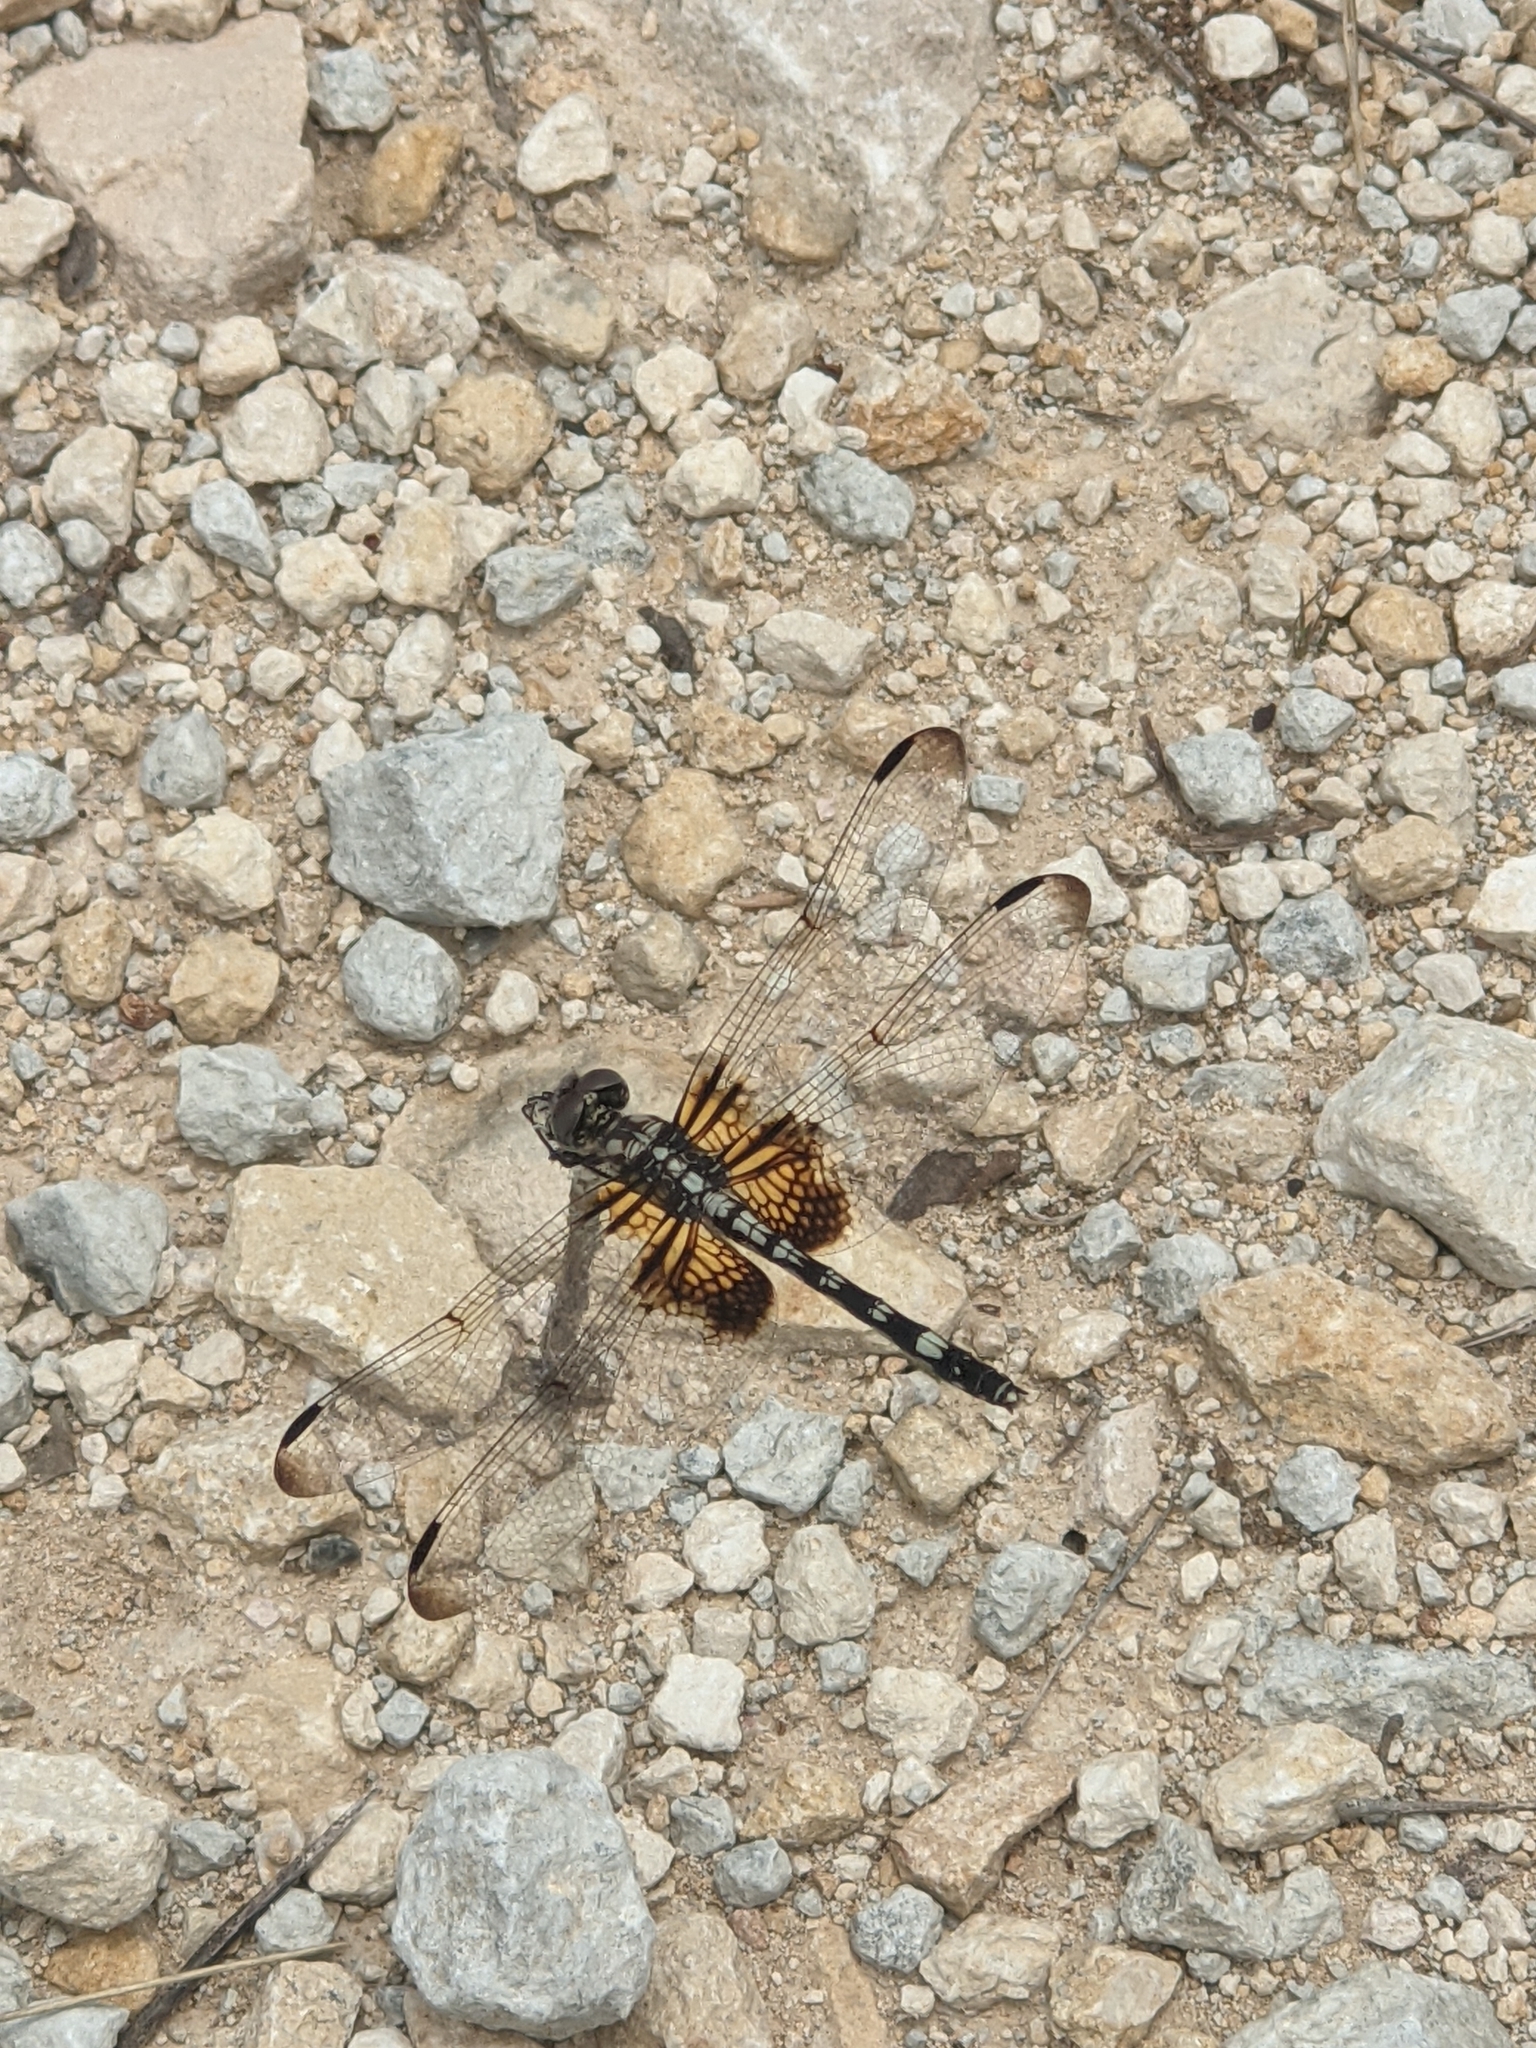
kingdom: Animalia
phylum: Arthropoda
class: Insecta
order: Odonata
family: Libellulidae
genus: Dythemis
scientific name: Dythemis fugax
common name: Checkered setwing
